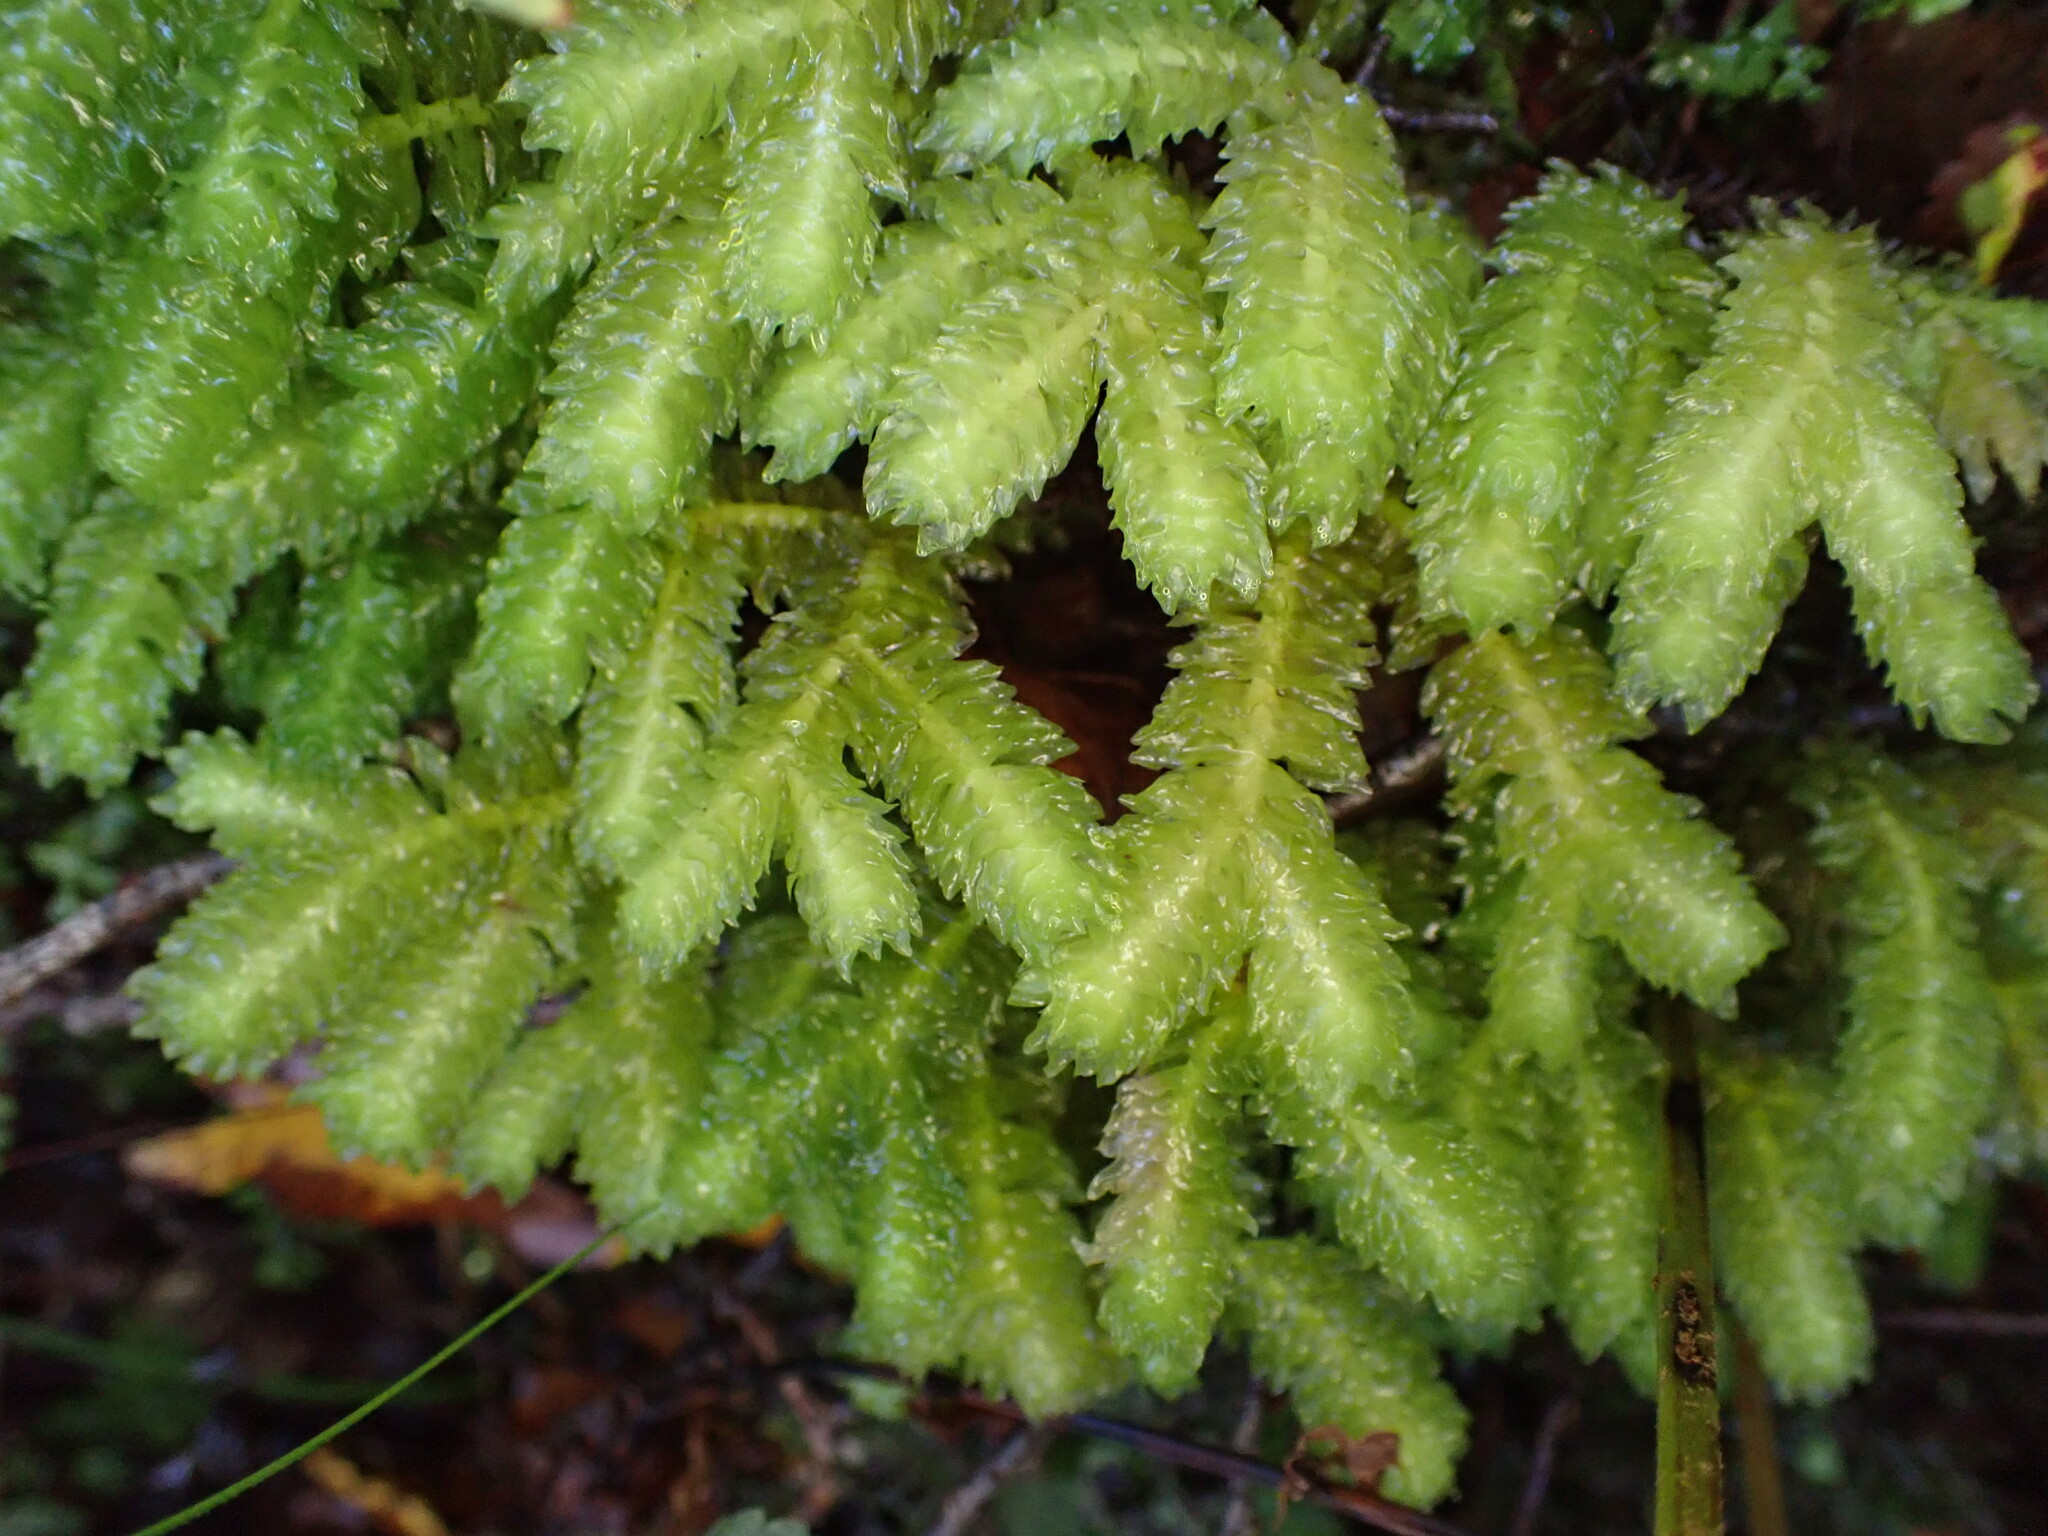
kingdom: Plantae
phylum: Marchantiophyta
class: Jungermanniopsida
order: Jungermanniales
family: Schistochilaceae
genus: Schistochila
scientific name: Schistochila nobilis
